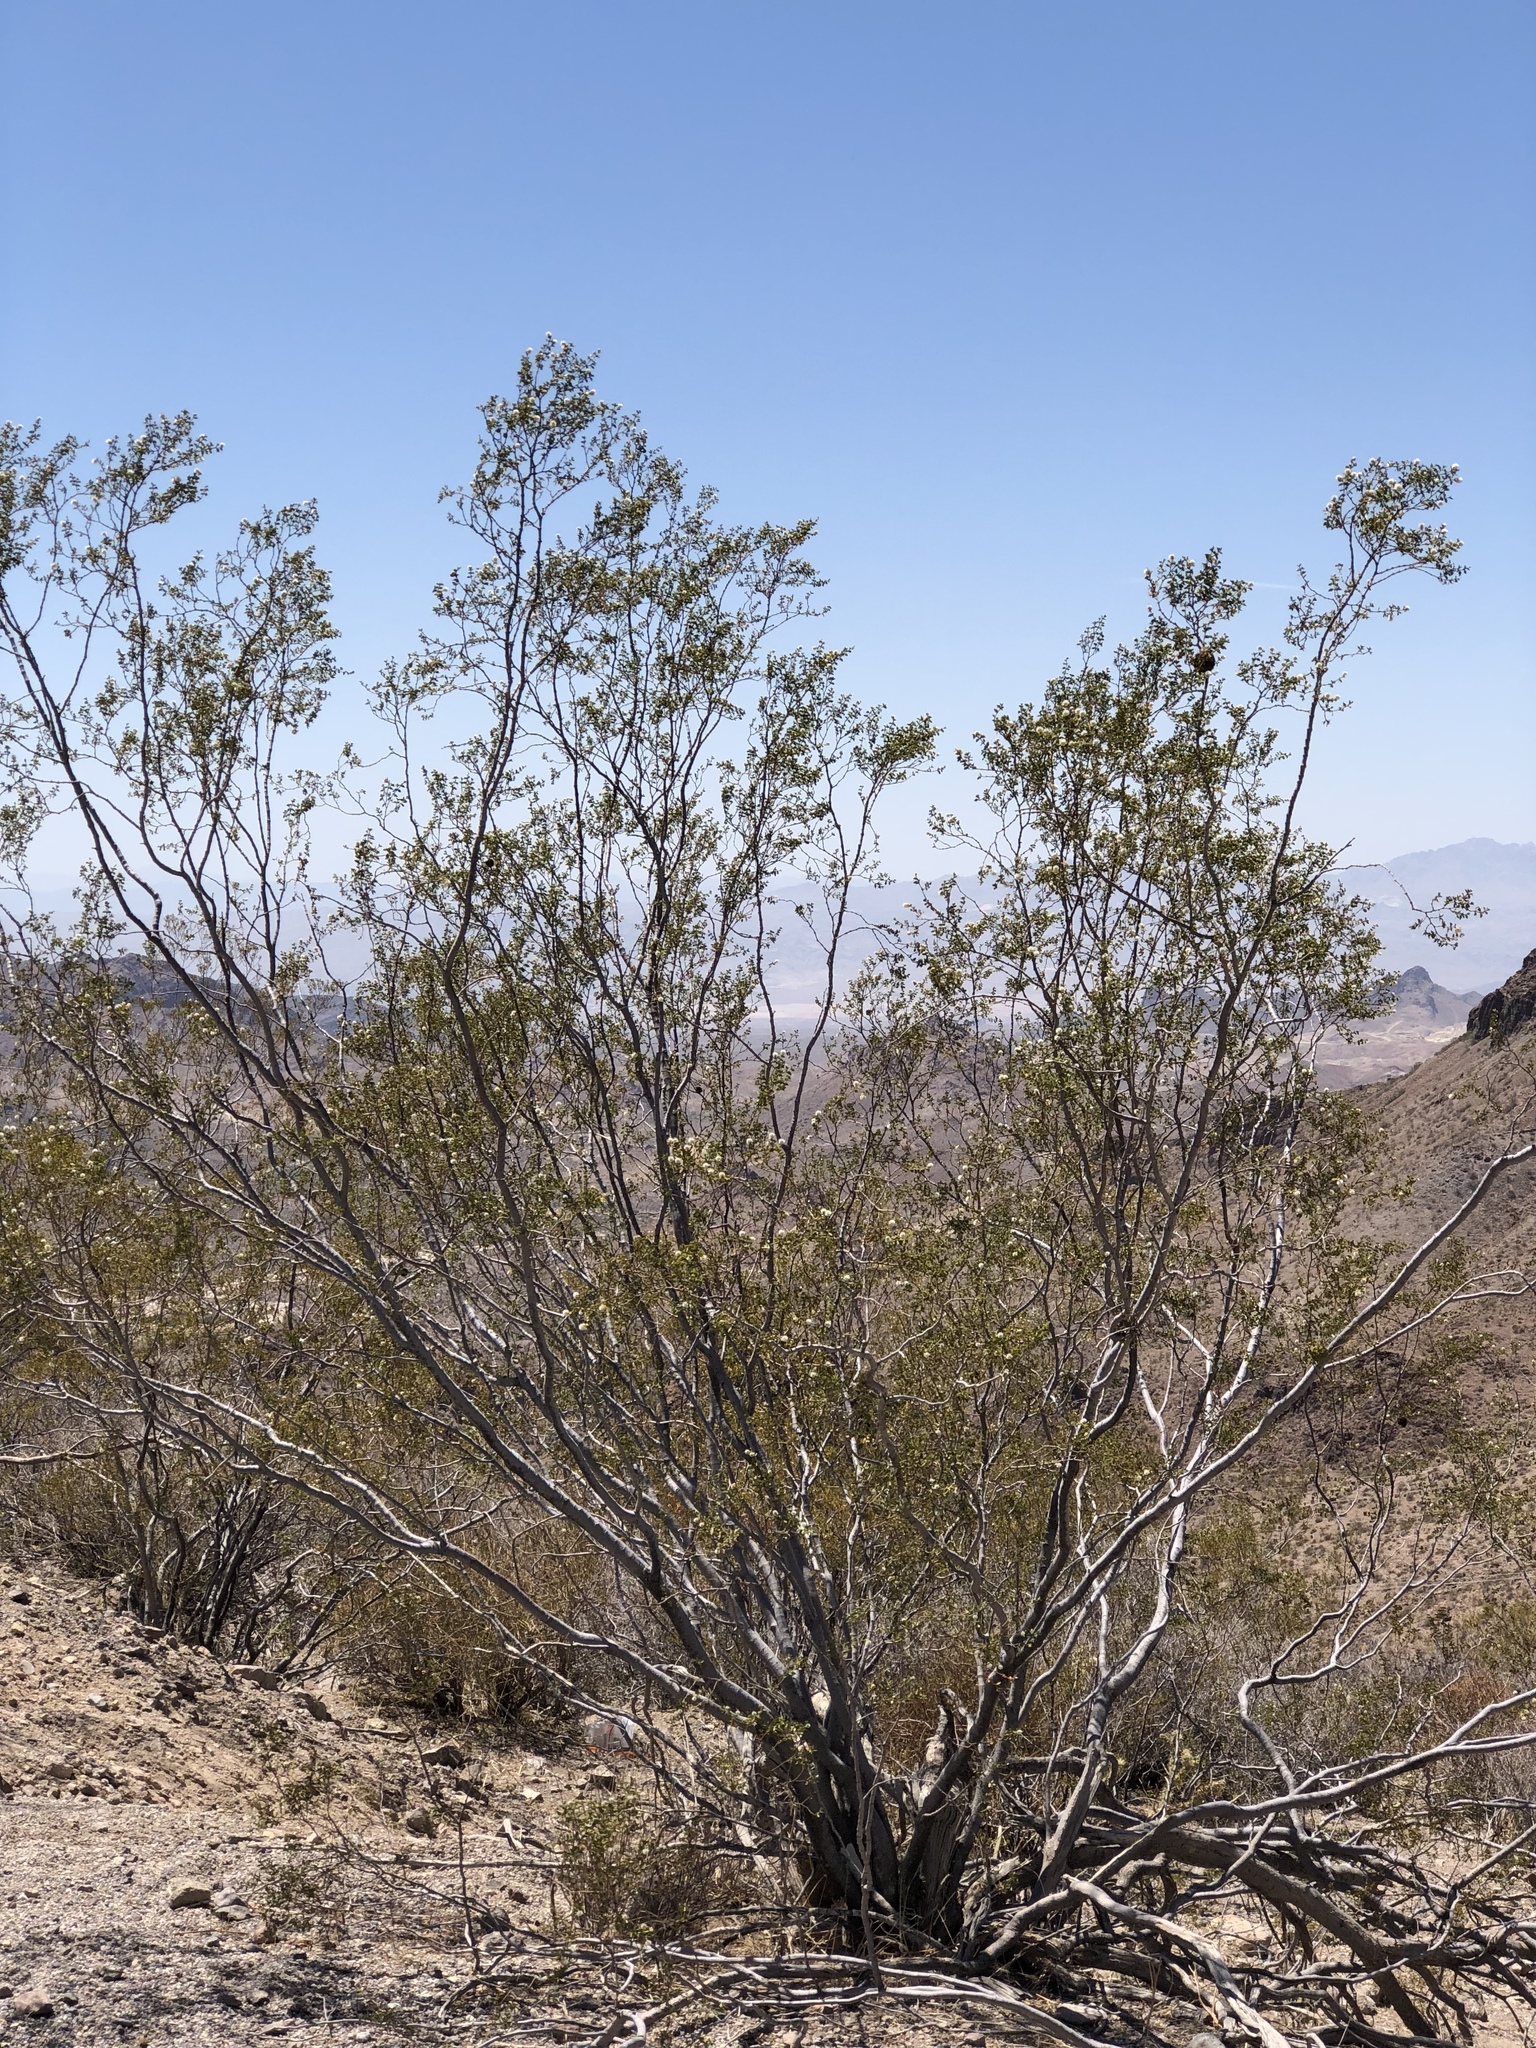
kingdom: Plantae
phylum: Tracheophyta
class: Magnoliopsida
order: Zygophyllales
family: Zygophyllaceae
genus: Larrea
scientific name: Larrea tridentata
